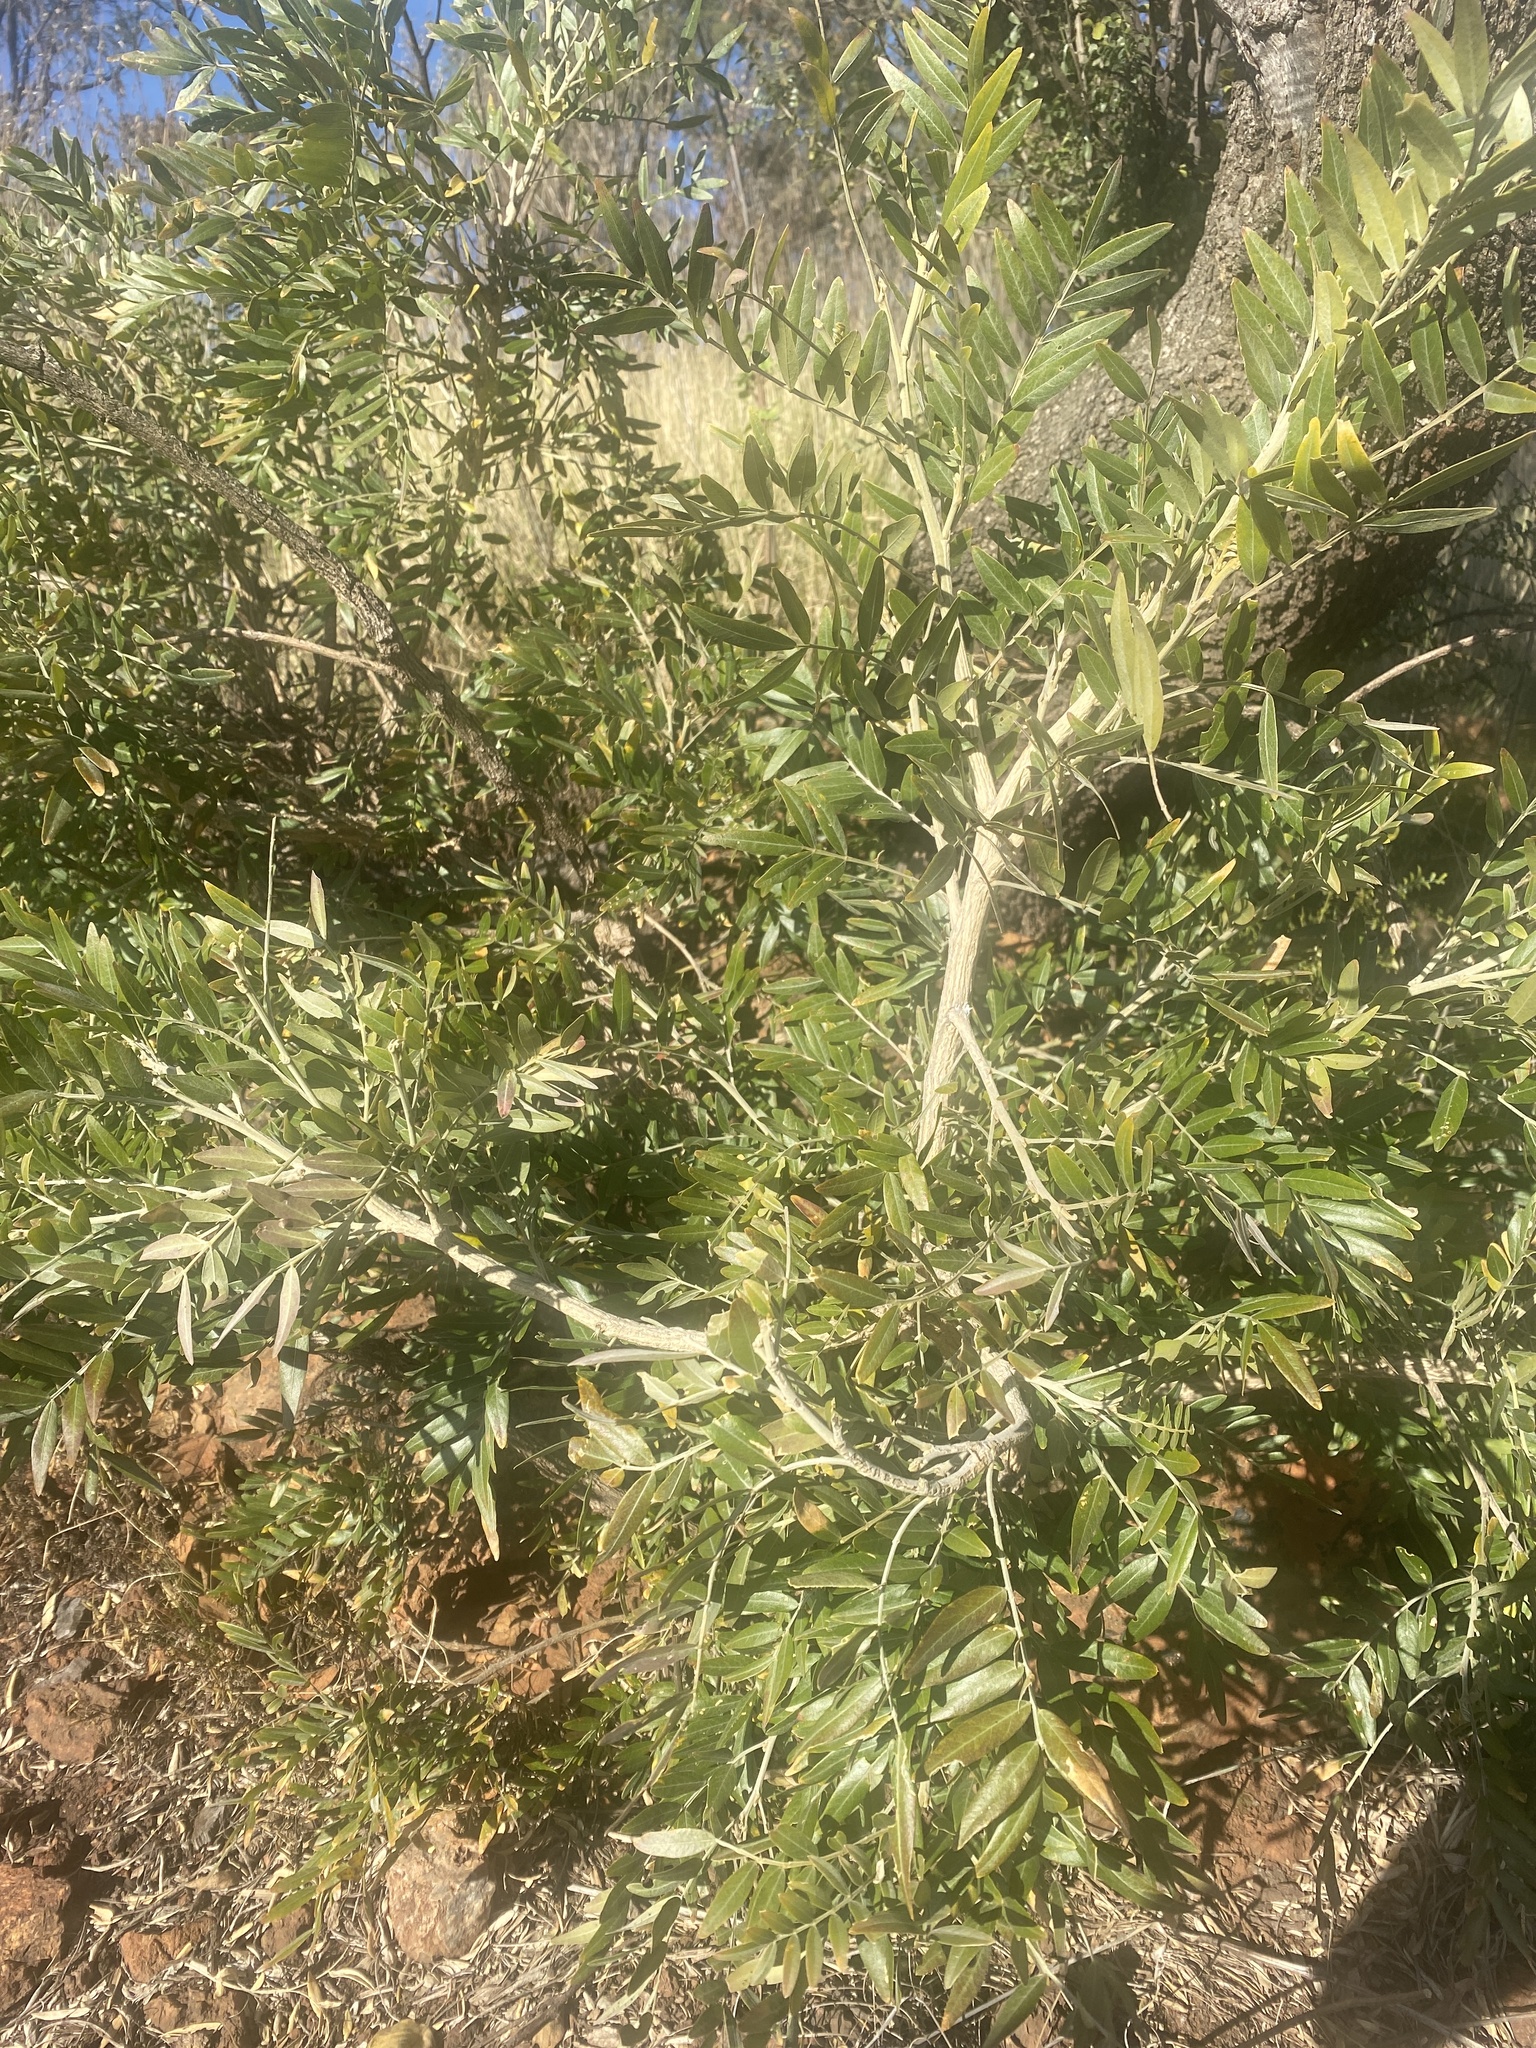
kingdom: Plantae
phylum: Tracheophyta
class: Magnoliopsida
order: Fabales
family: Fabaceae
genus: Mundulea
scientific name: Mundulea sericea
